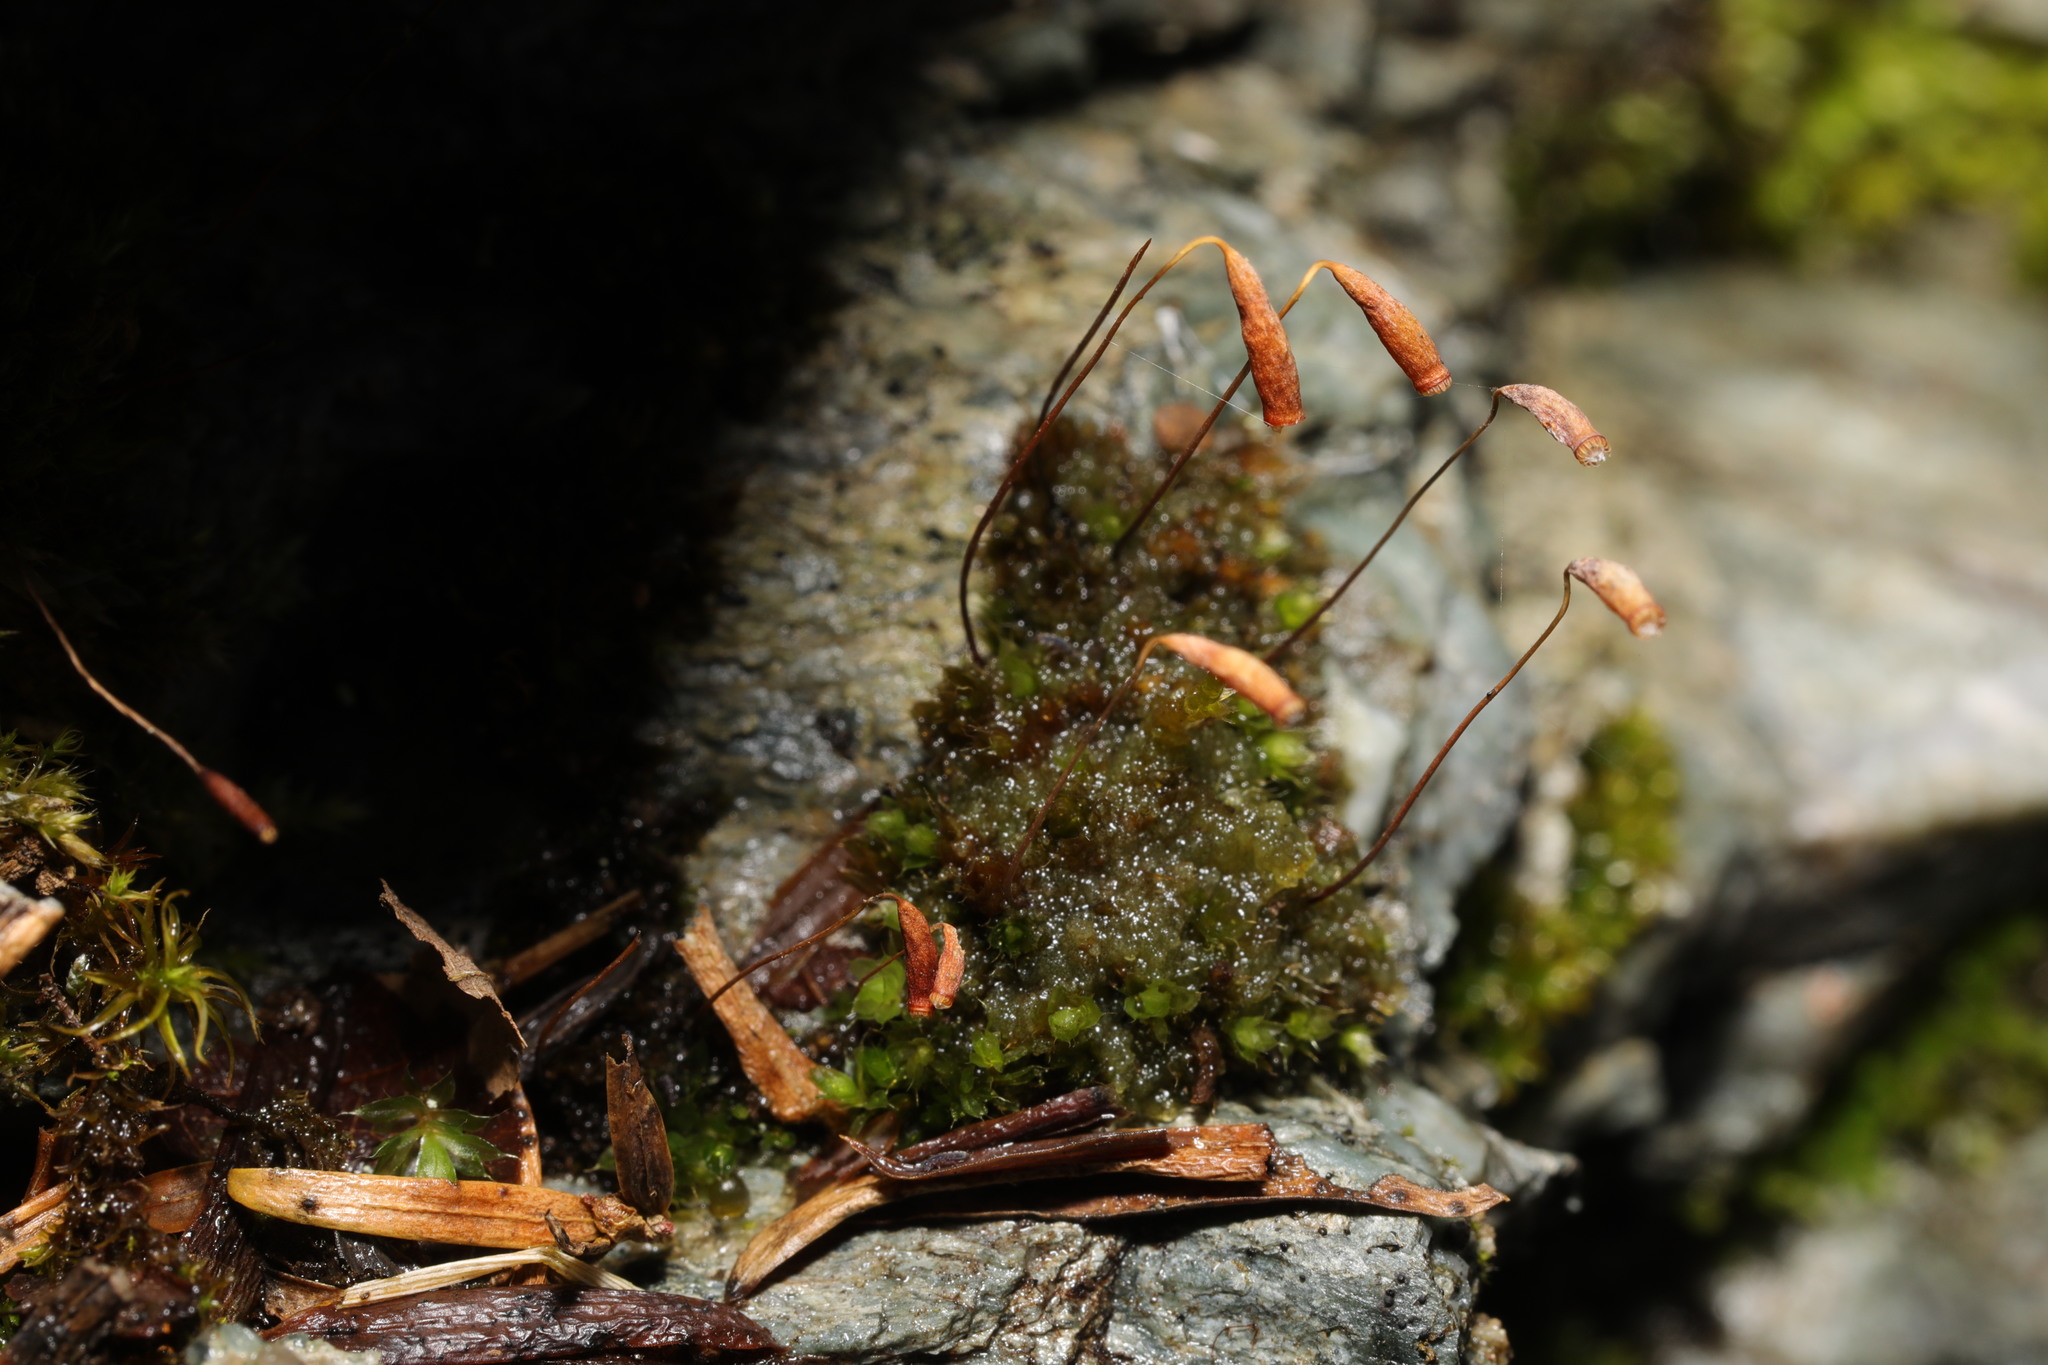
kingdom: Plantae
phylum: Bryophyta
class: Bryopsida
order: Bryales
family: Bryaceae
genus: Rosulabryum
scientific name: Rosulabryum capillare
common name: Capillary thread-moss
